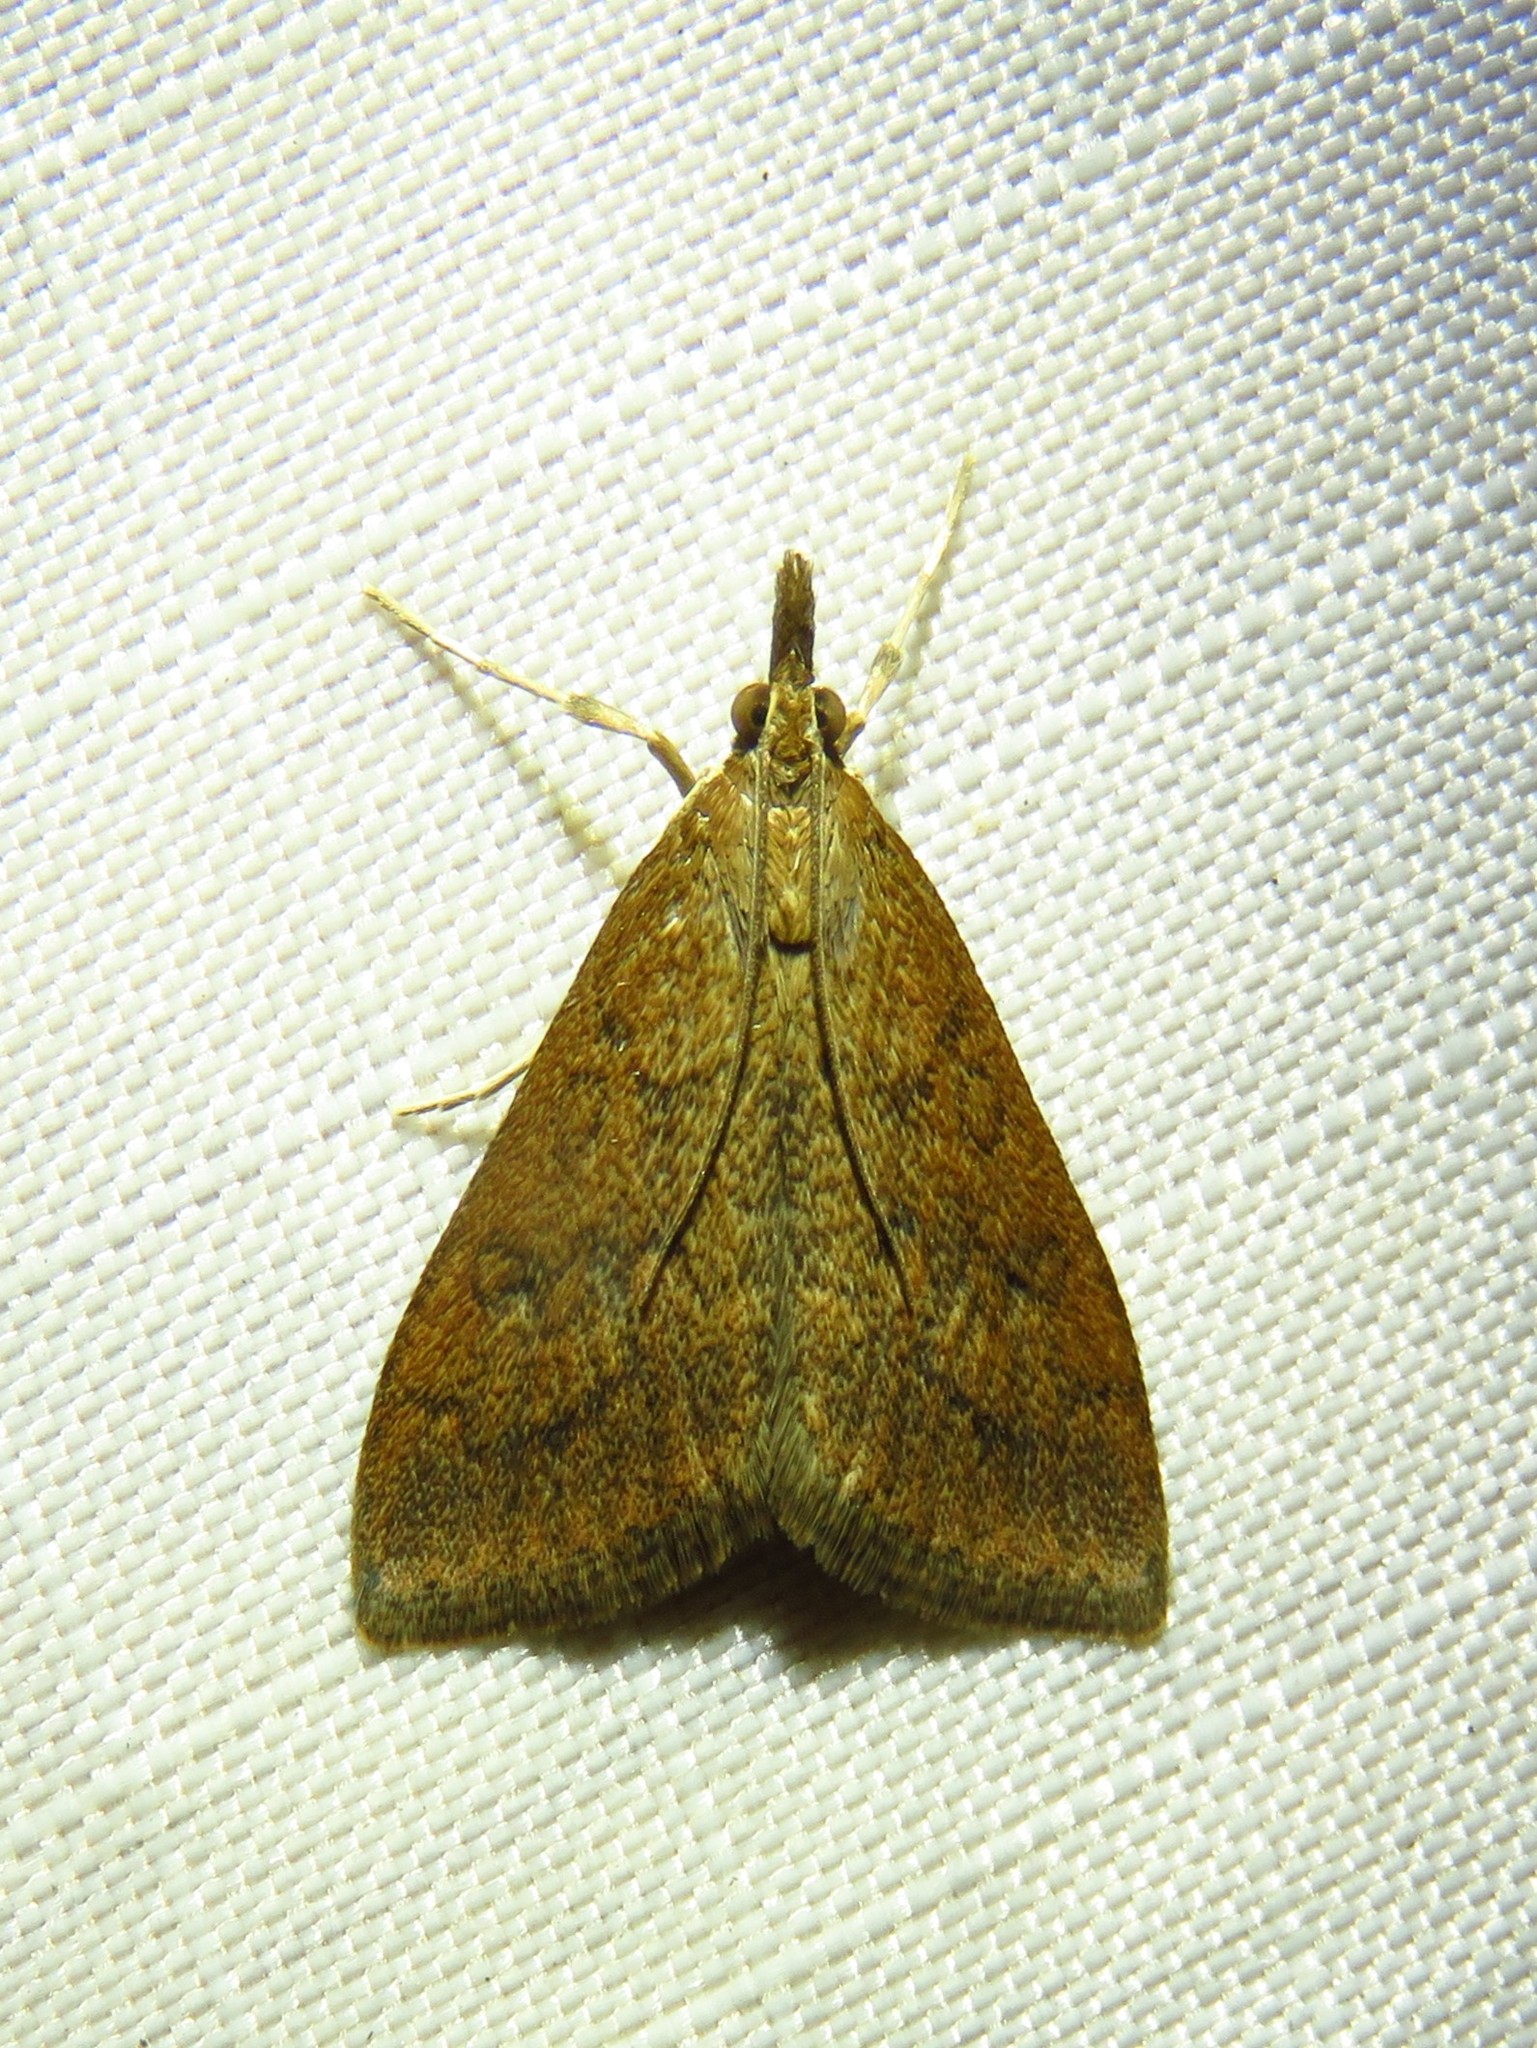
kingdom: Animalia
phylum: Arthropoda
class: Insecta
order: Lepidoptera
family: Crambidae
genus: Udea
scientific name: Udea rubigalis
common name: Celery leaftier moth
